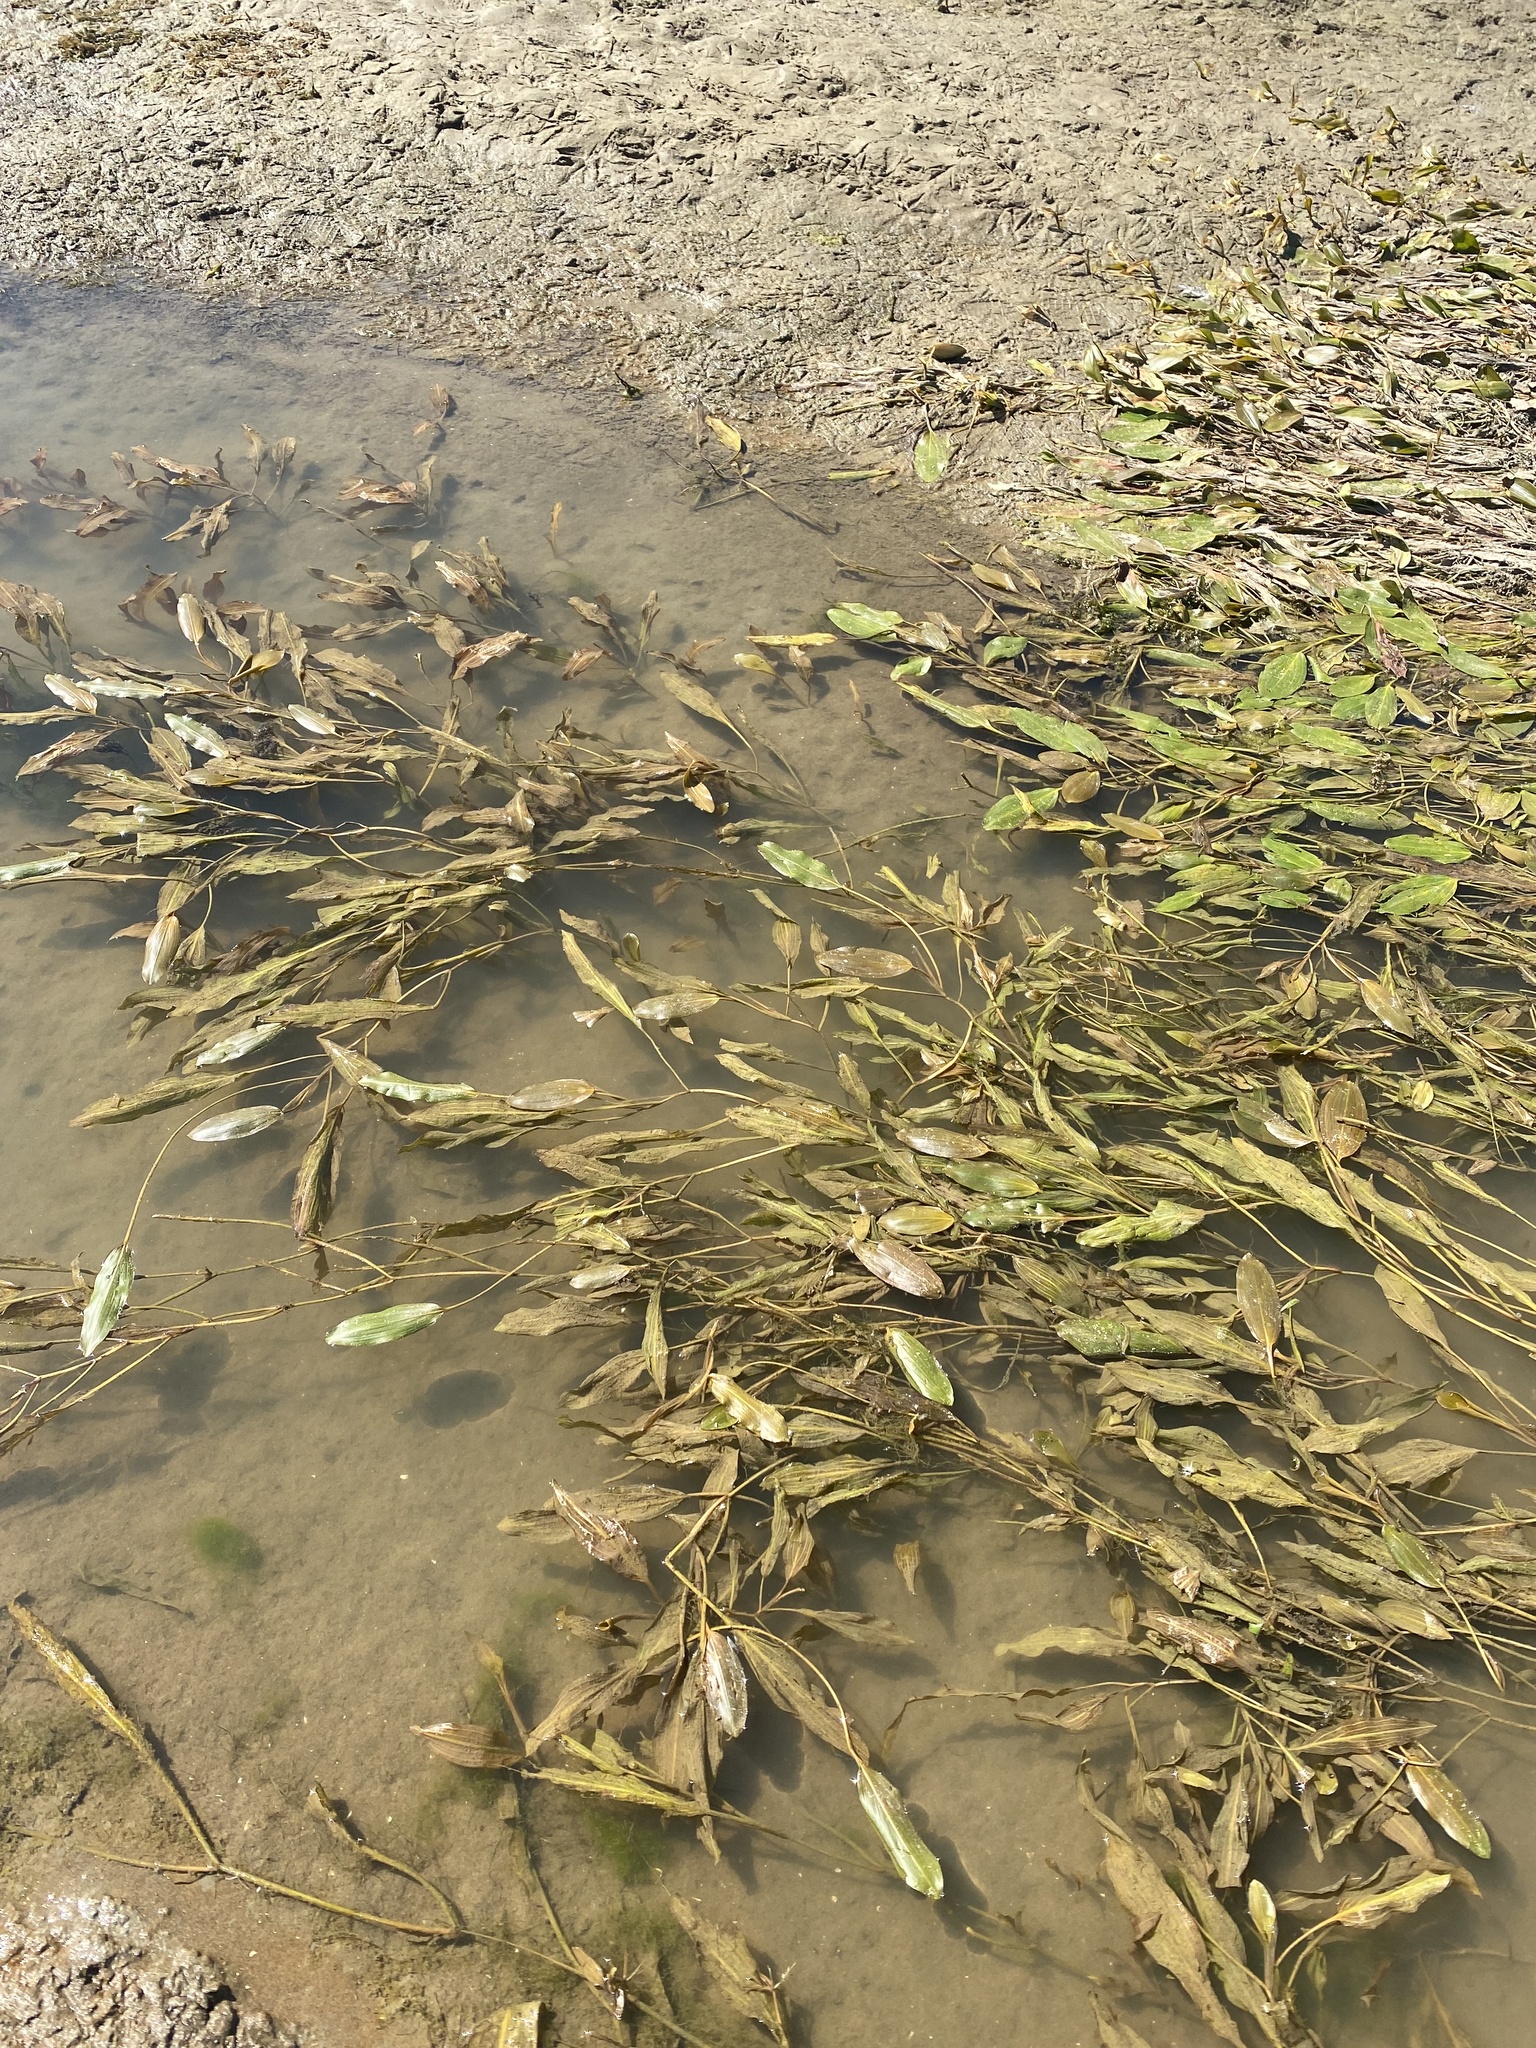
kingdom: Plantae
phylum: Tracheophyta
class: Liliopsida
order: Alismatales
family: Potamogetonaceae
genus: Potamogeton
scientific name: Potamogeton nodosus
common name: Loddon pondweed
